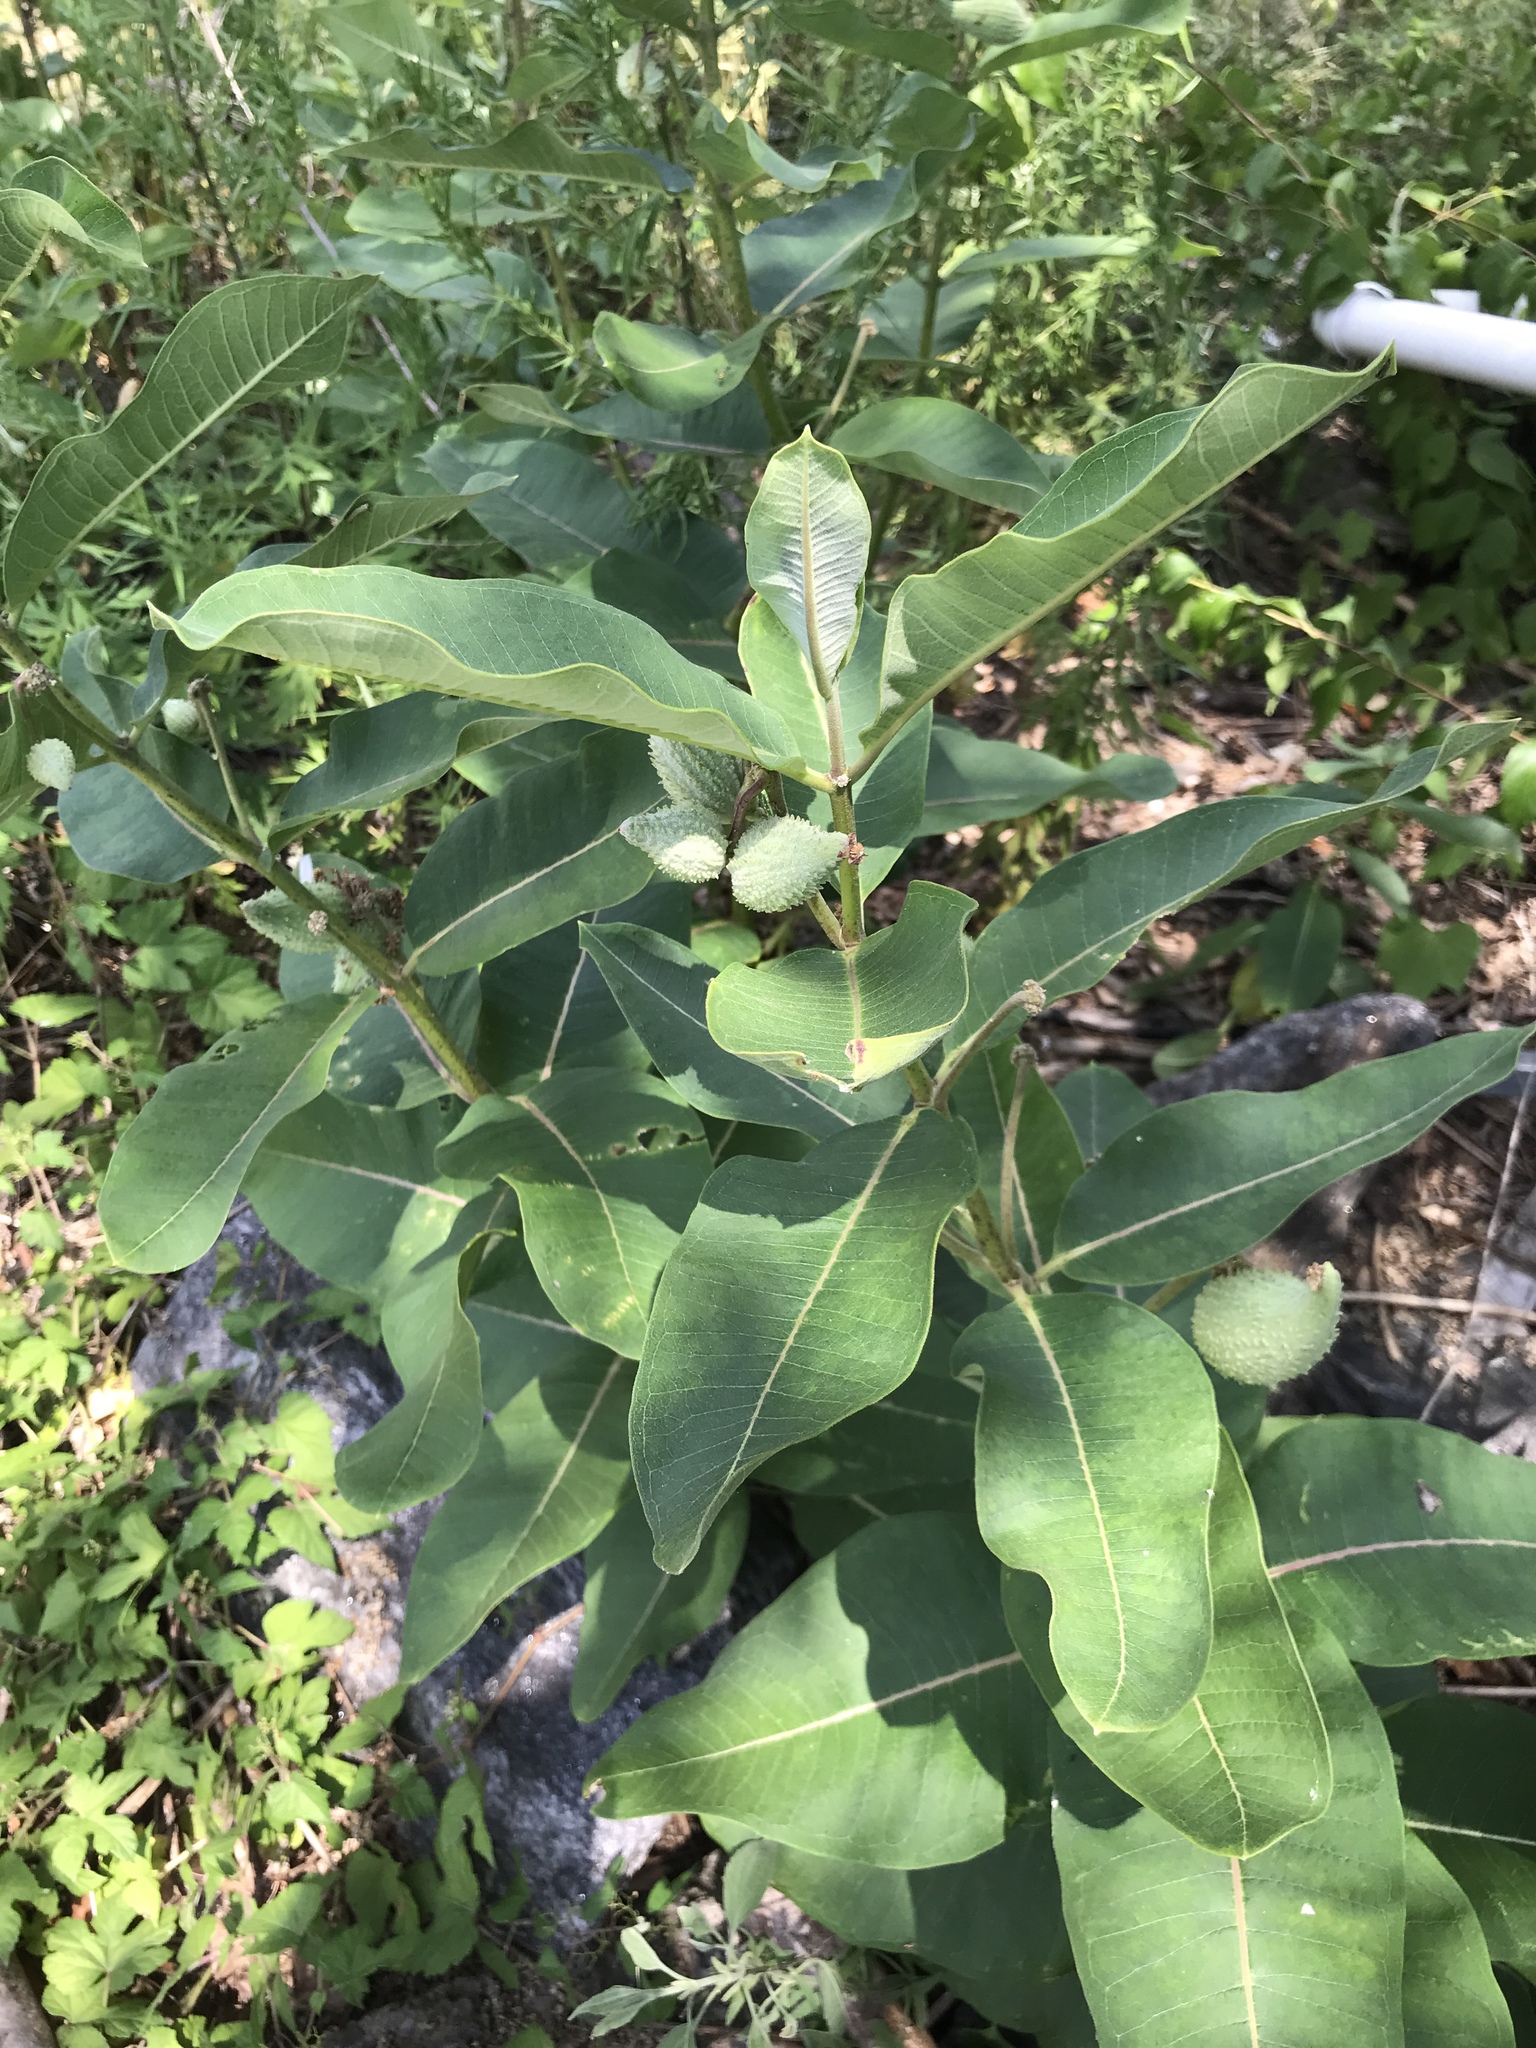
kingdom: Plantae
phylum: Tracheophyta
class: Magnoliopsida
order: Gentianales
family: Apocynaceae
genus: Asclepias
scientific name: Asclepias syriaca
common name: Common milkweed
